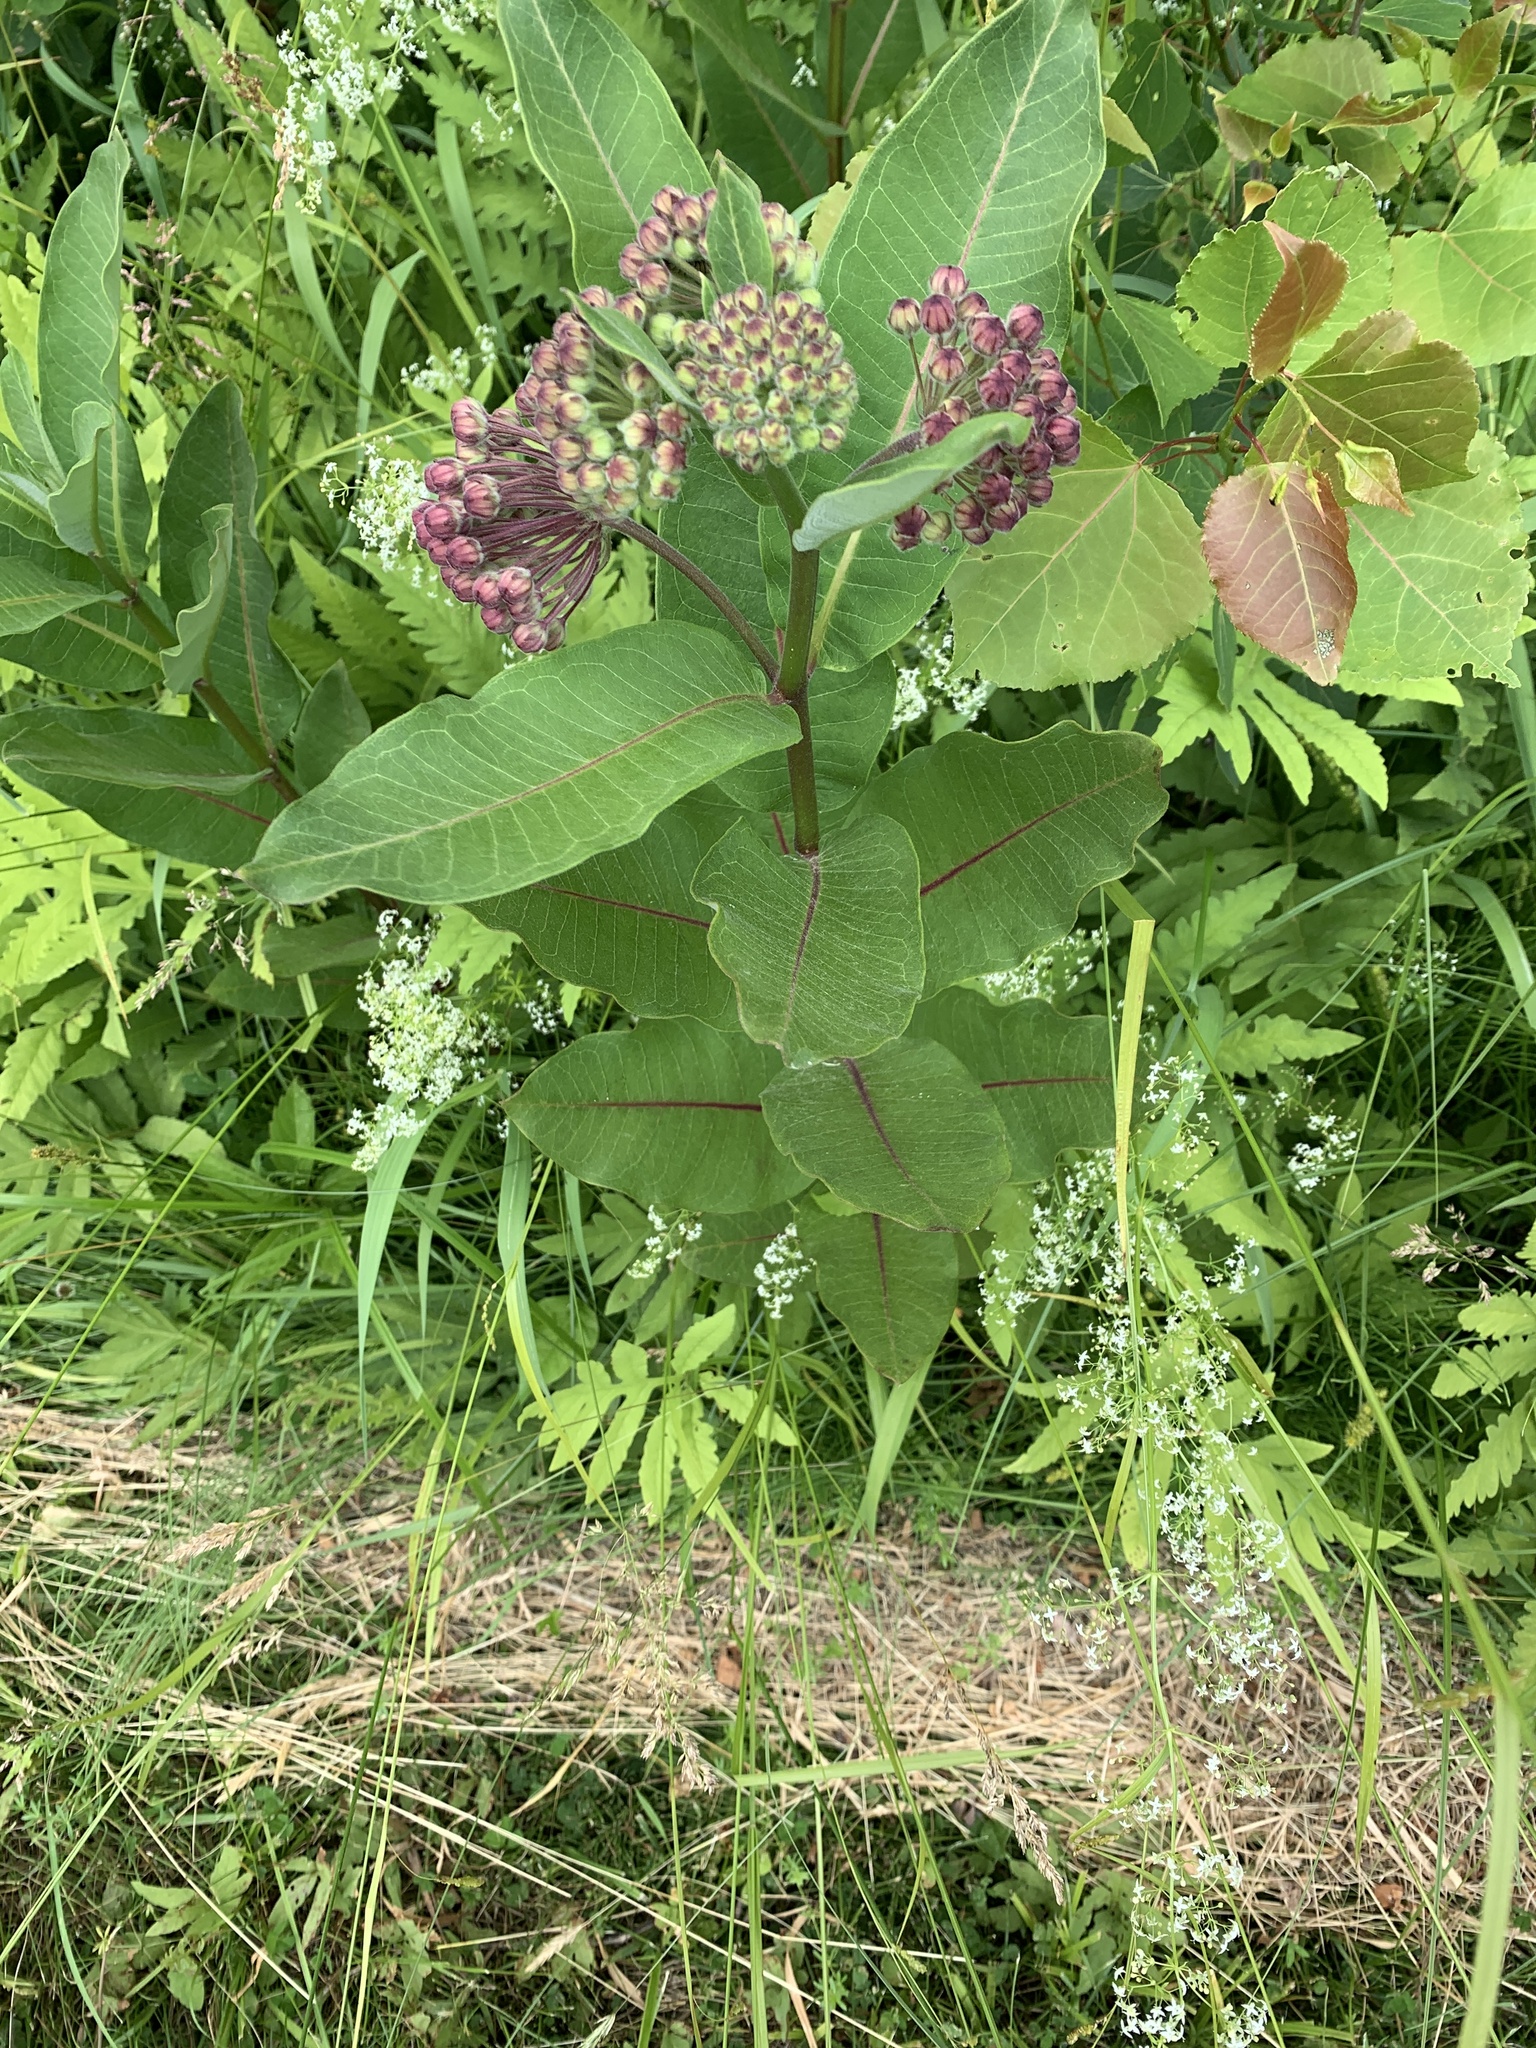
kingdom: Plantae
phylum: Tracheophyta
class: Magnoliopsida
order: Gentianales
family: Apocynaceae
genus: Asclepias
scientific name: Asclepias syriaca
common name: Common milkweed
